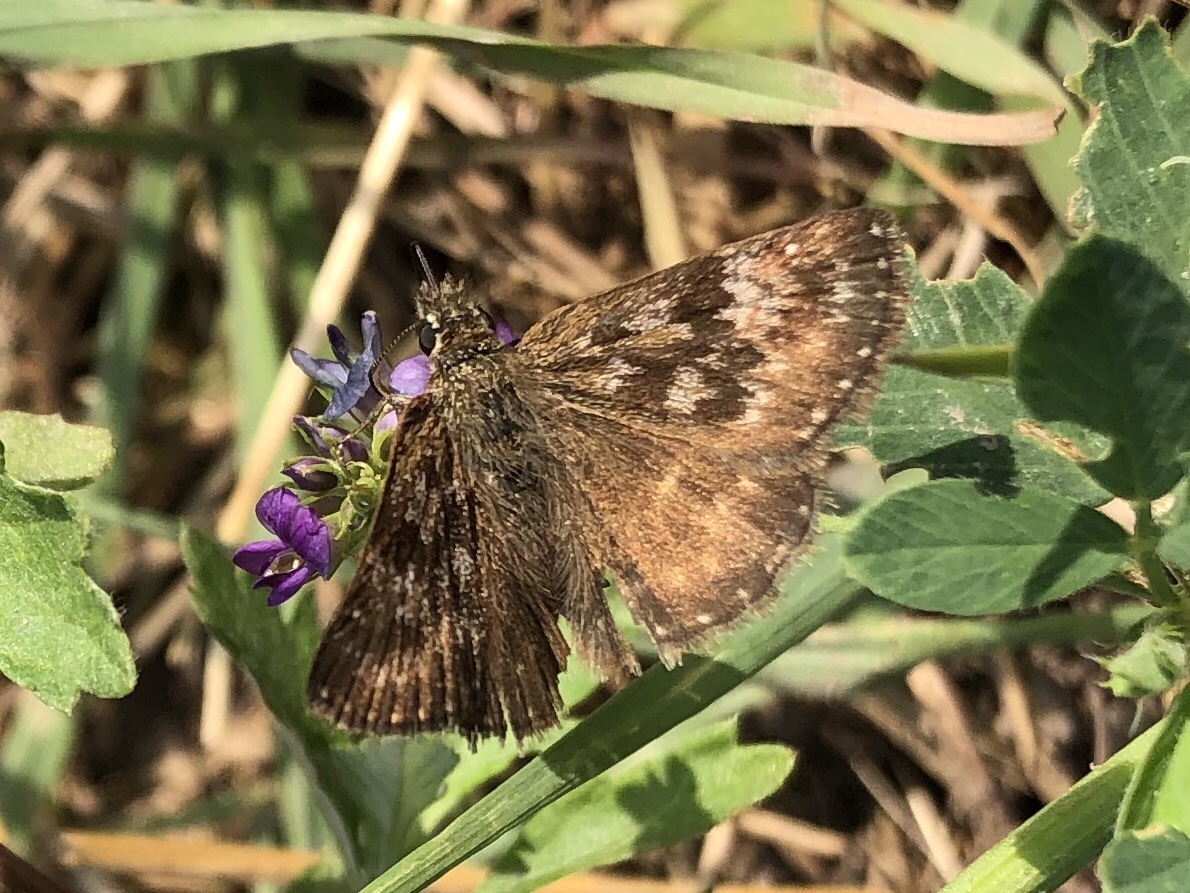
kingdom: Animalia
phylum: Arthropoda
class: Insecta
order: Lepidoptera
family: Hesperiidae
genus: Erynnis
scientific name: Erynnis tages
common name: Dingy skipper
